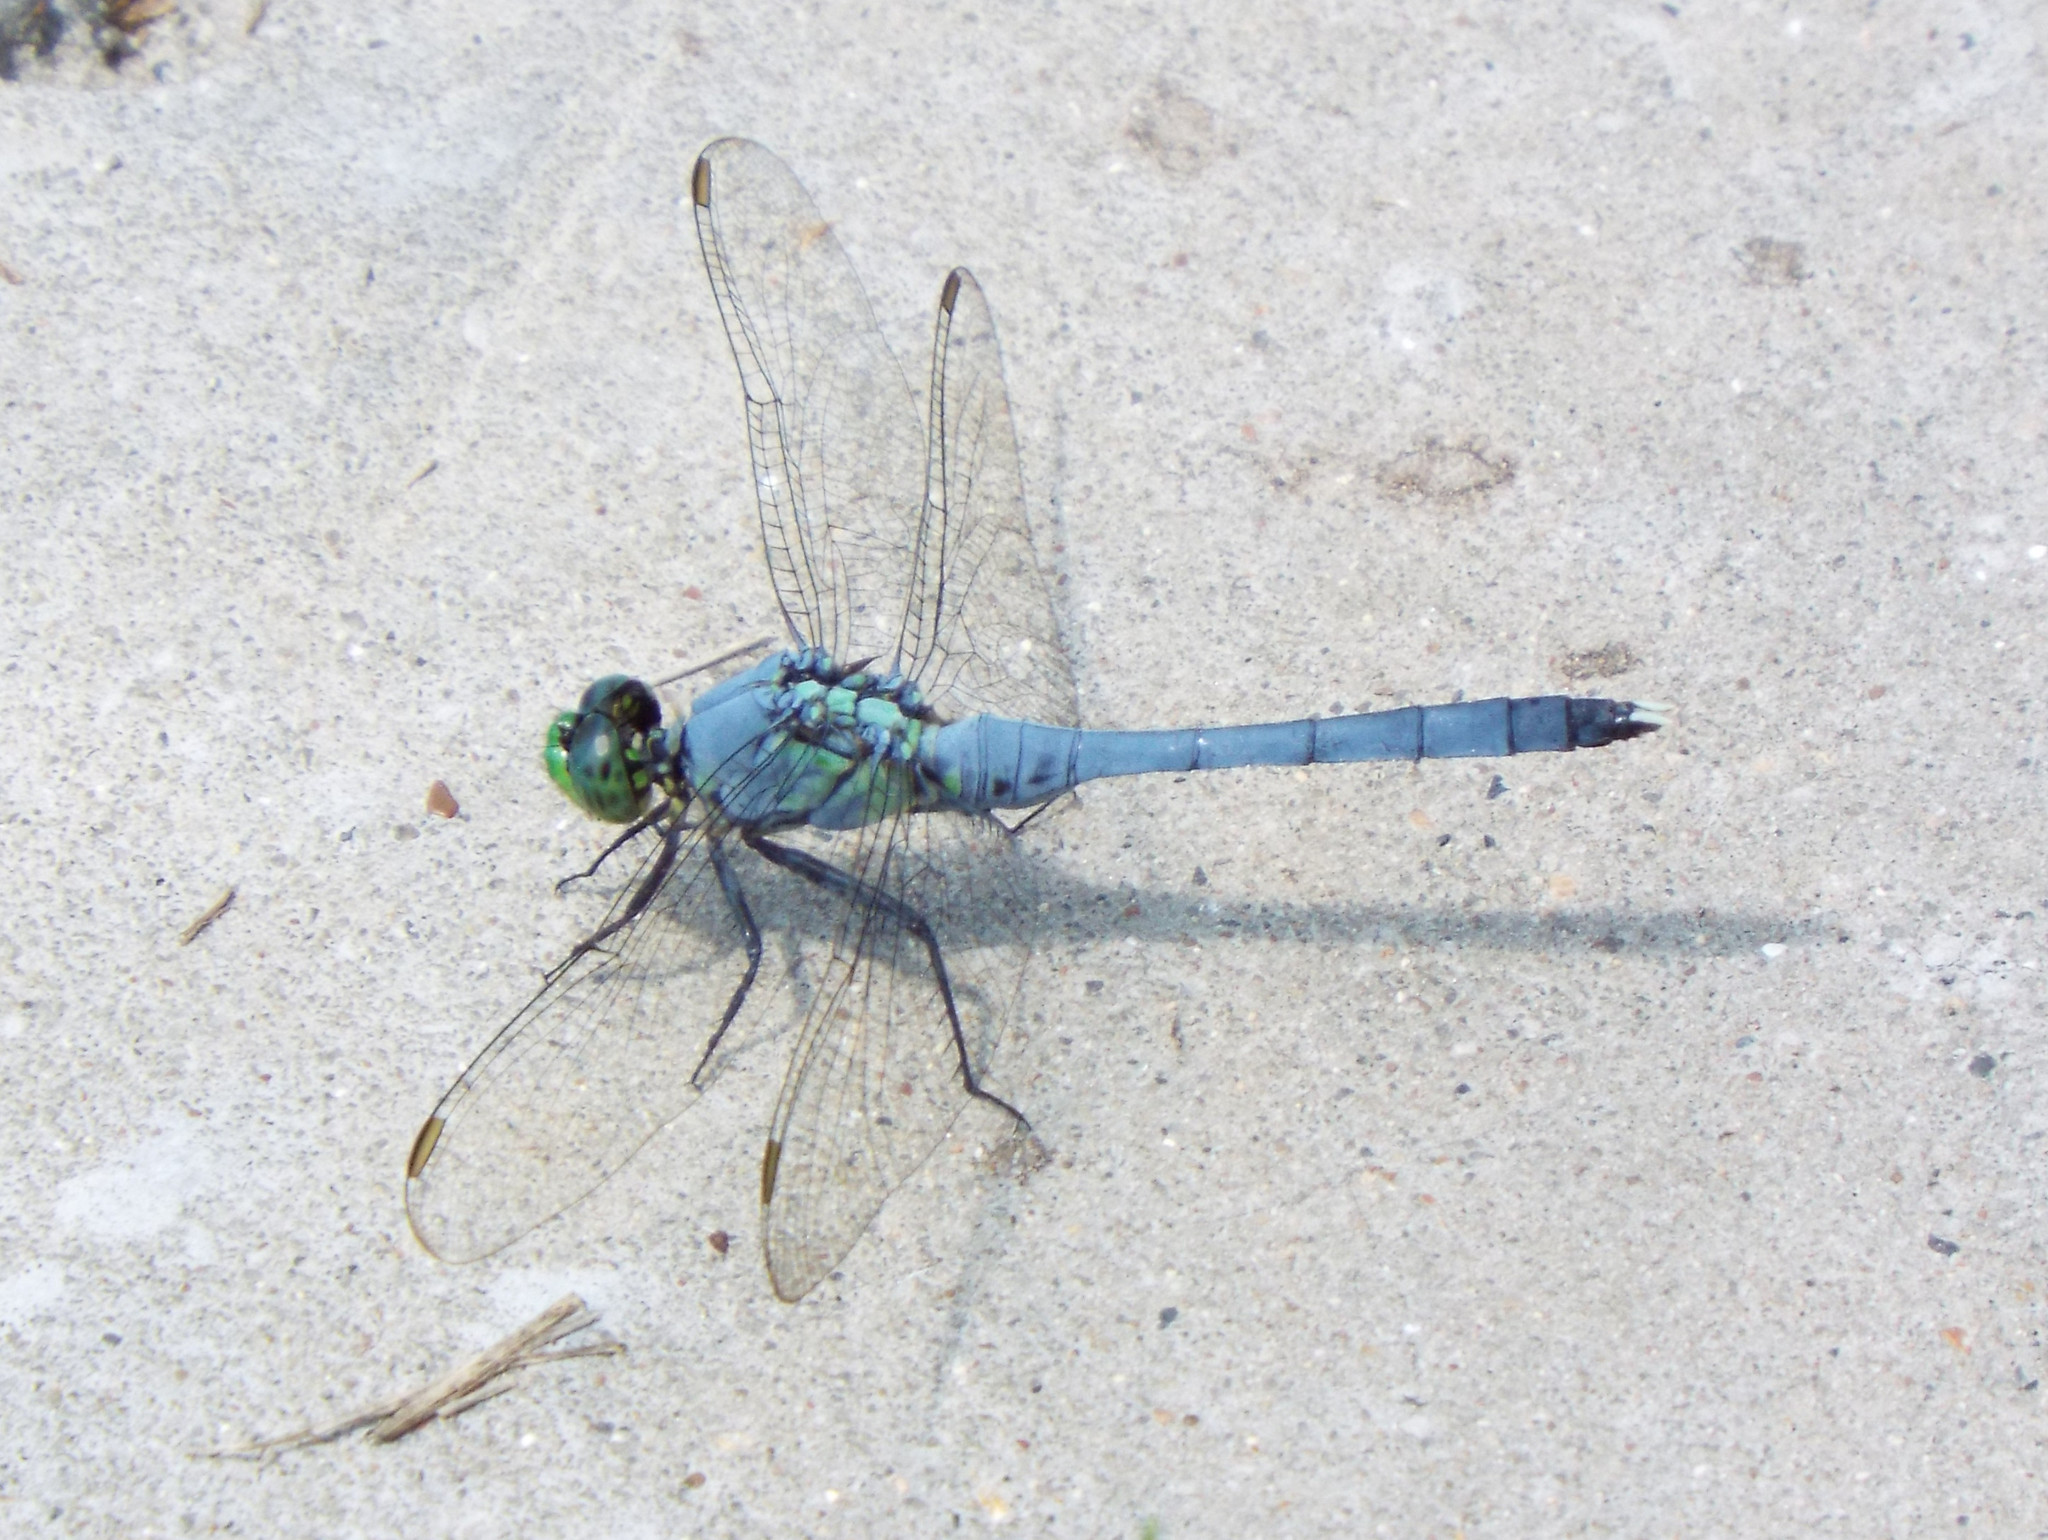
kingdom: Animalia
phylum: Arthropoda
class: Insecta
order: Odonata
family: Libellulidae
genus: Erythemis
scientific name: Erythemis simplicicollis
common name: Eastern pondhawk
